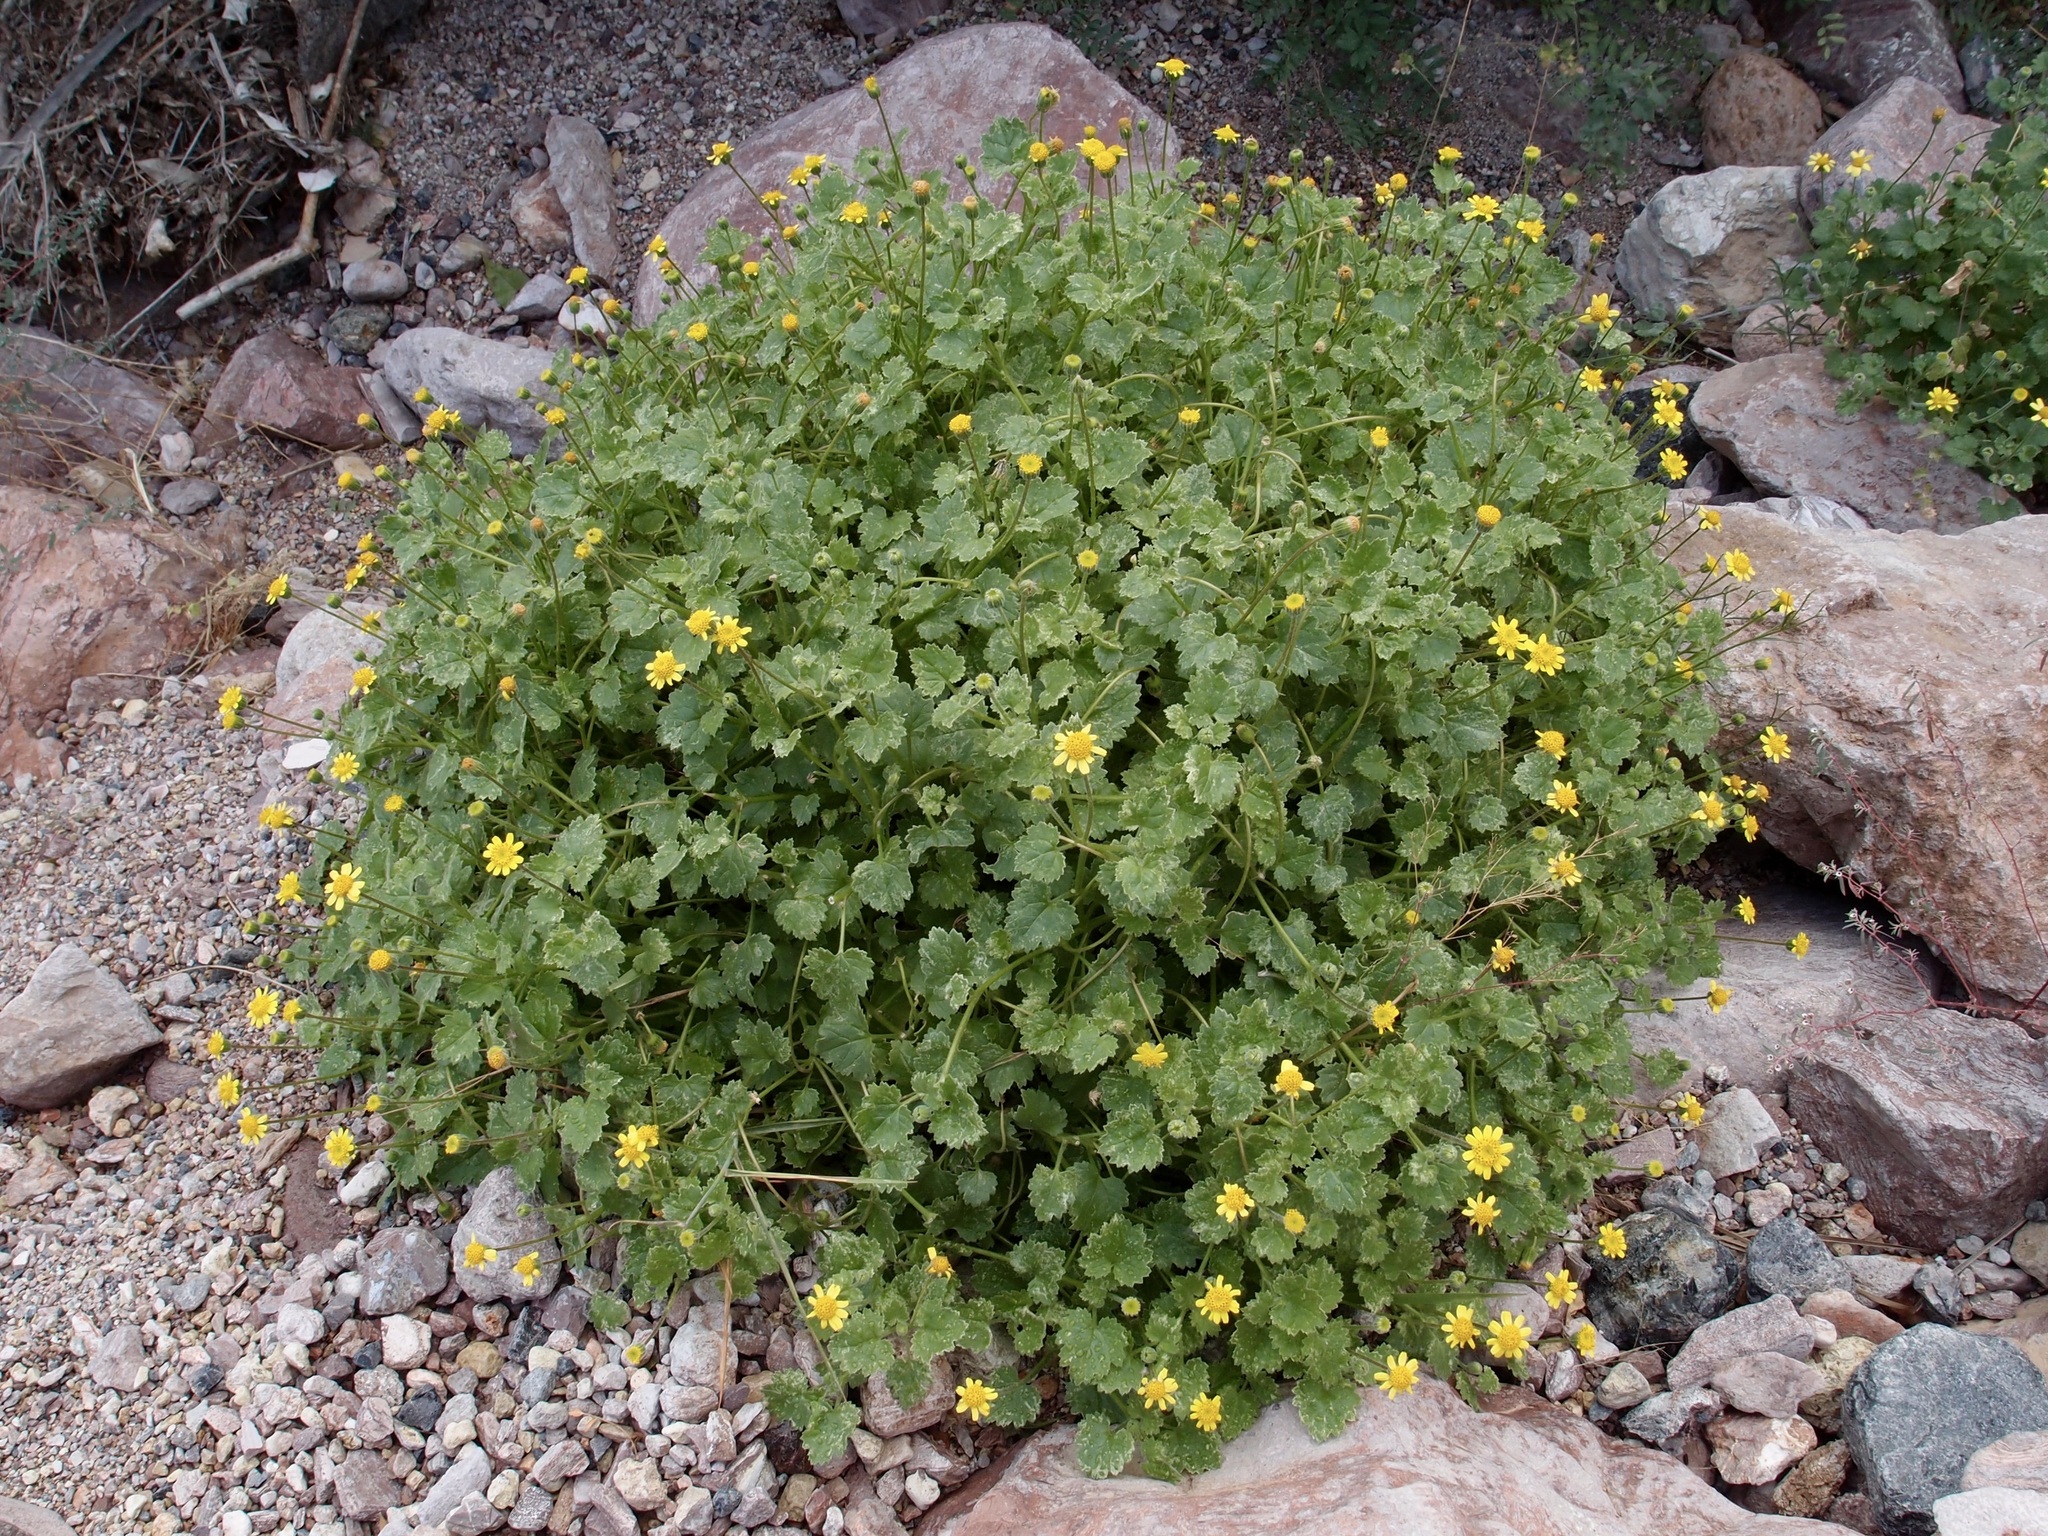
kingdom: Plantae
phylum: Tracheophyta
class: Magnoliopsida
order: Asterales
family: Asteraceae
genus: Laphamia
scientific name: Laphamia sanchezii
